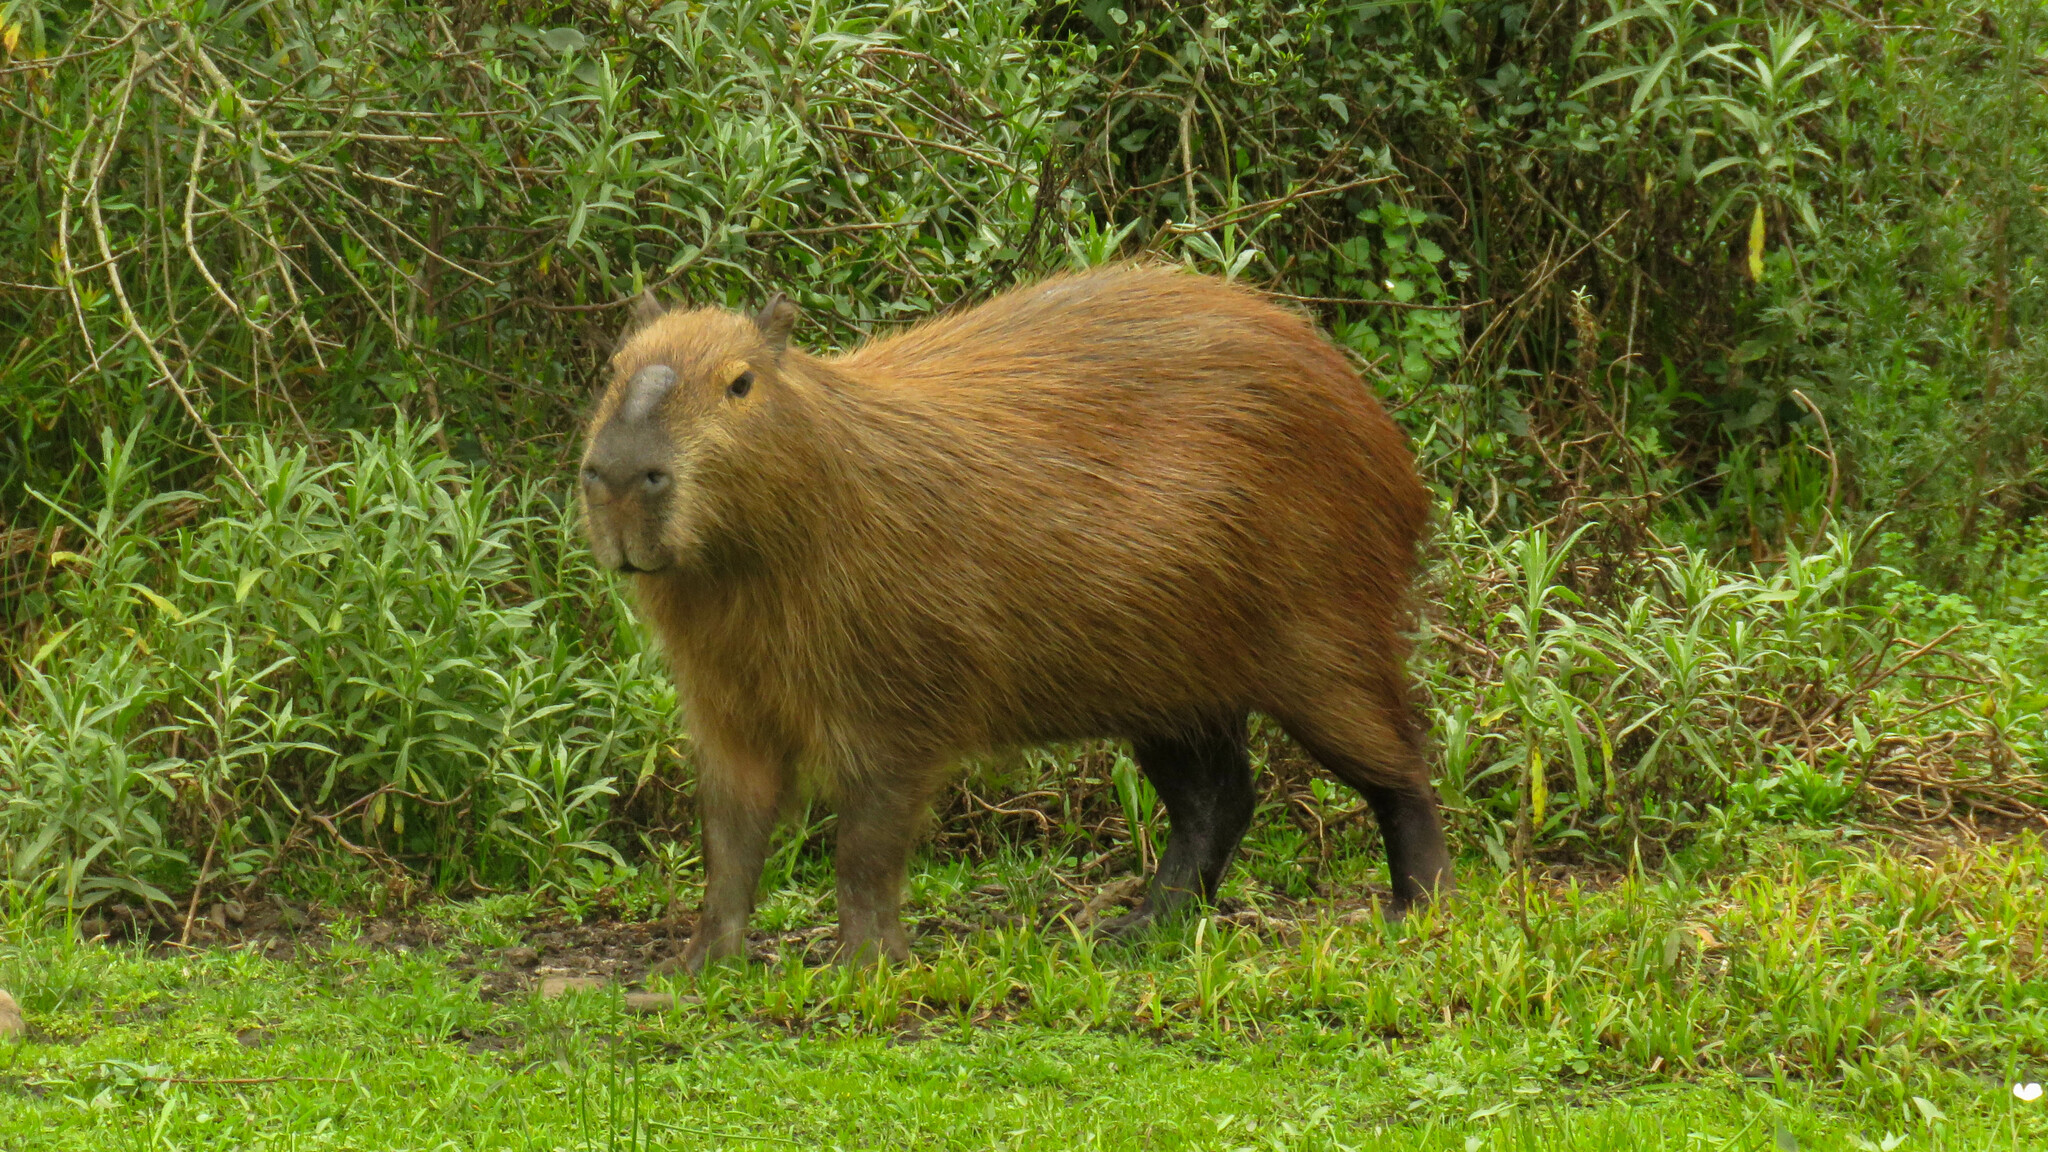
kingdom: Animalia
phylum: Chordata
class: Mammalia
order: Rodentia
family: Caviidae
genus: Hydrochoerus
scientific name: Hydrochoerus hydrochaeris
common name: Capybara
